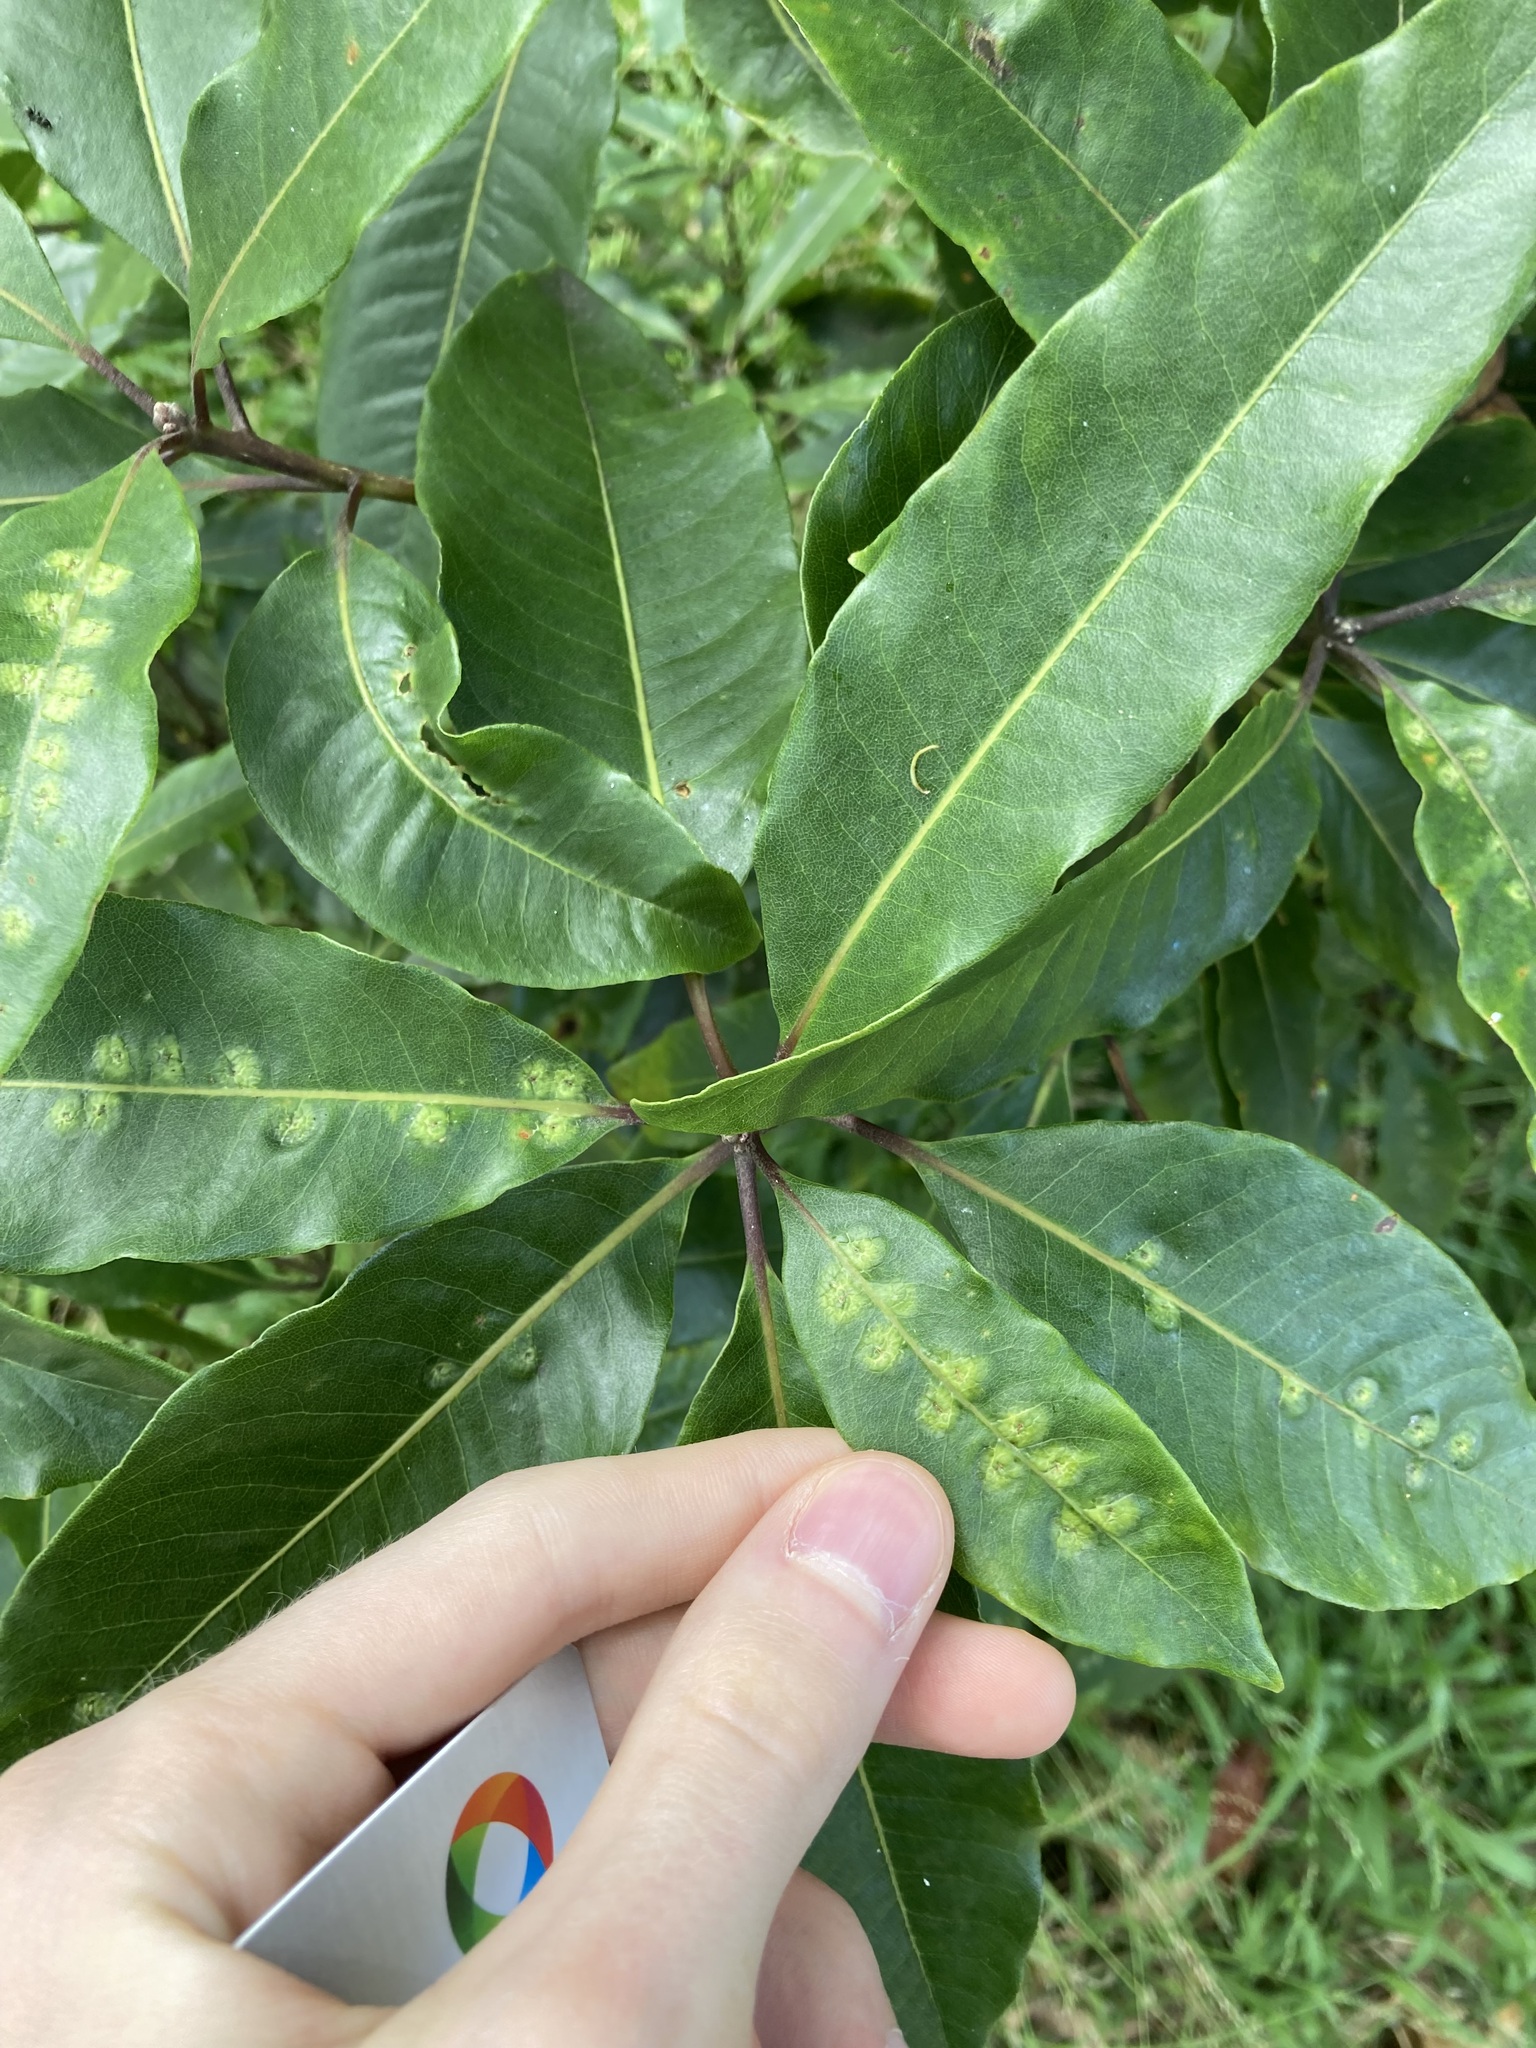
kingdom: Animalia
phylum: Arthropoda
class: Insecta
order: Diptera
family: Agromyzidae
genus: Phytoliriomyza
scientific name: Phytoliriomyza pittosporophylli
